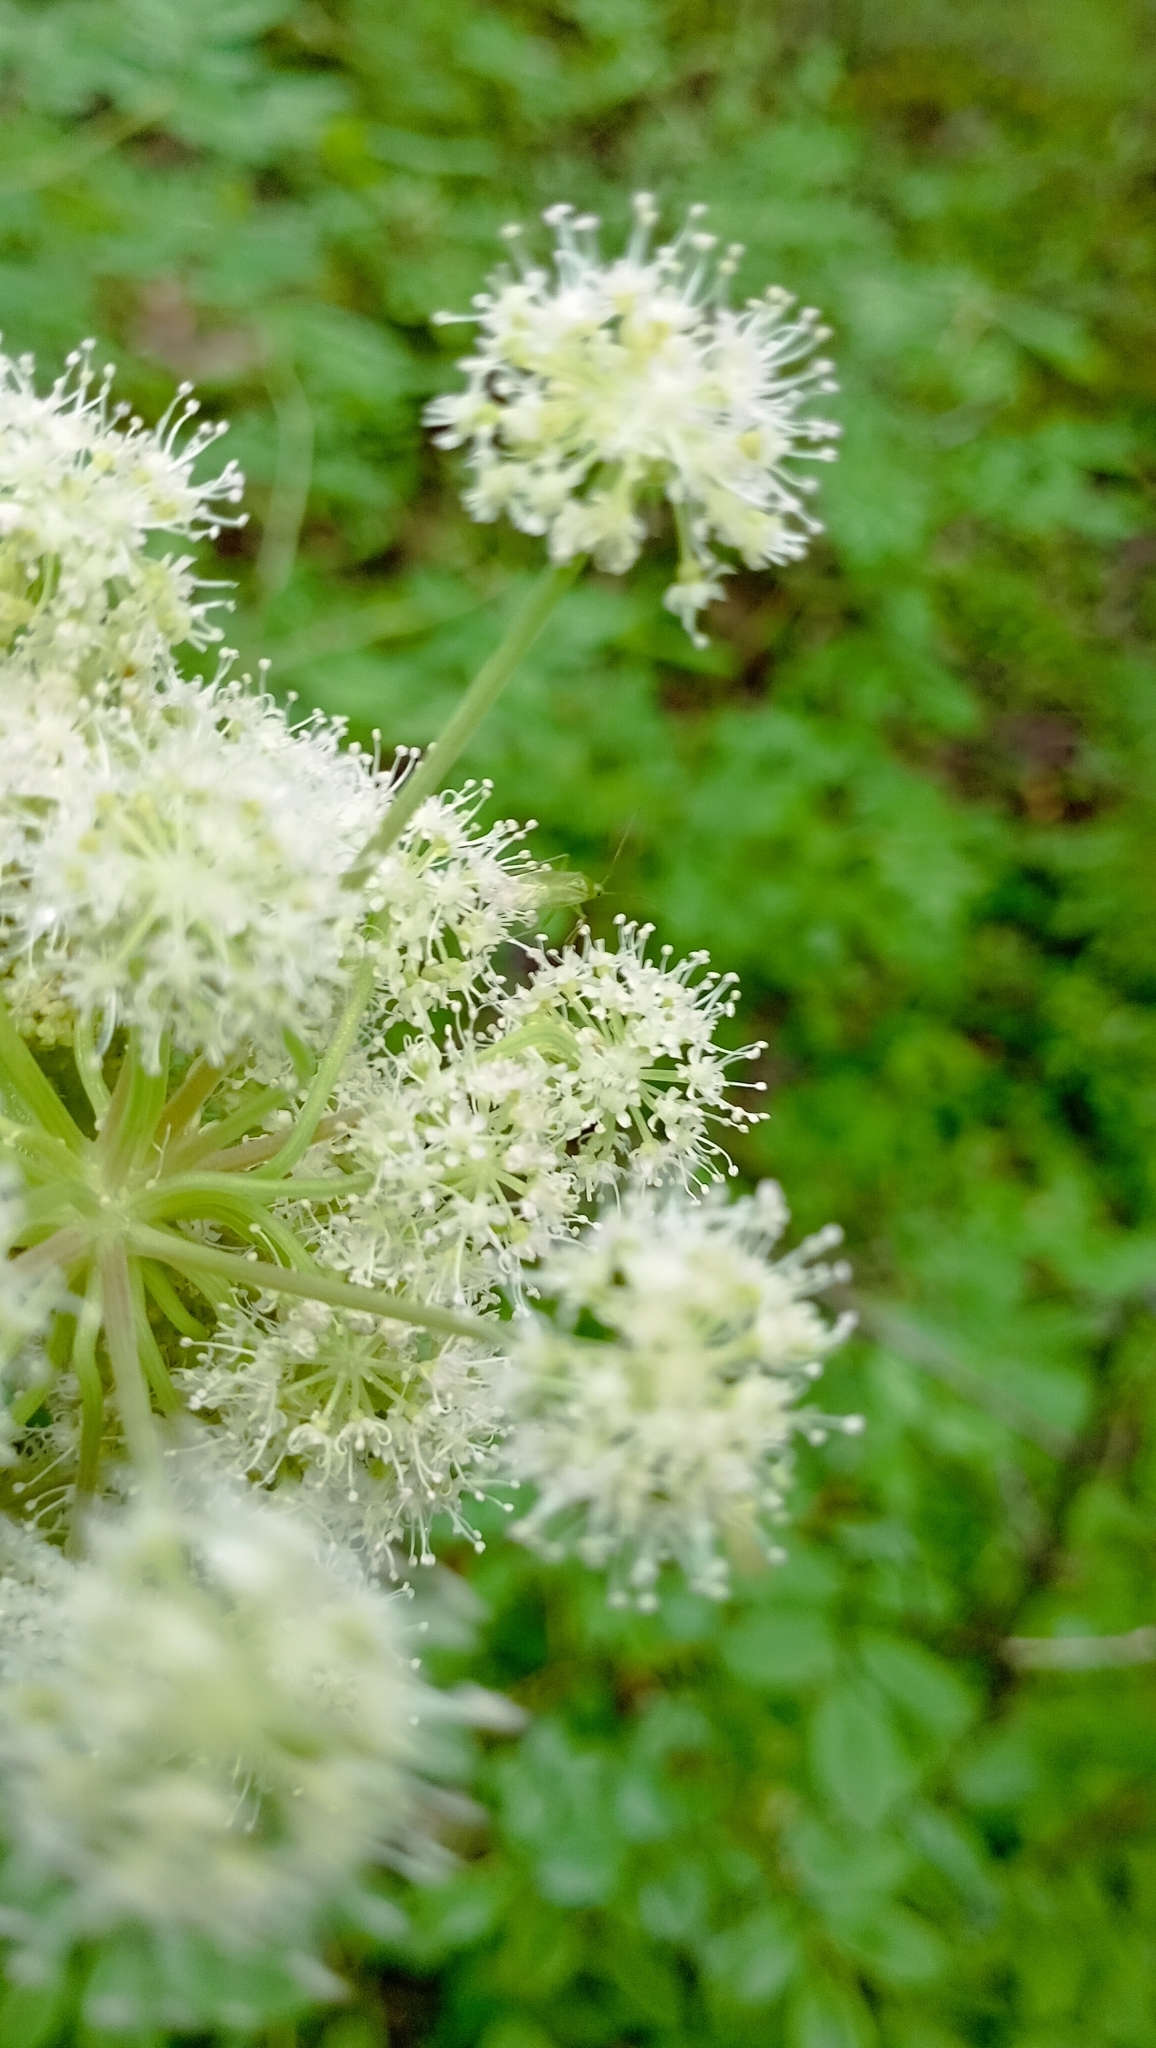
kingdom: Plantae
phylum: Tracheophyta
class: Magnoliopsida
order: Apiales
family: Apiaceae
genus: Angelica
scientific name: Angelica sylvestris
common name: Wild angelica
